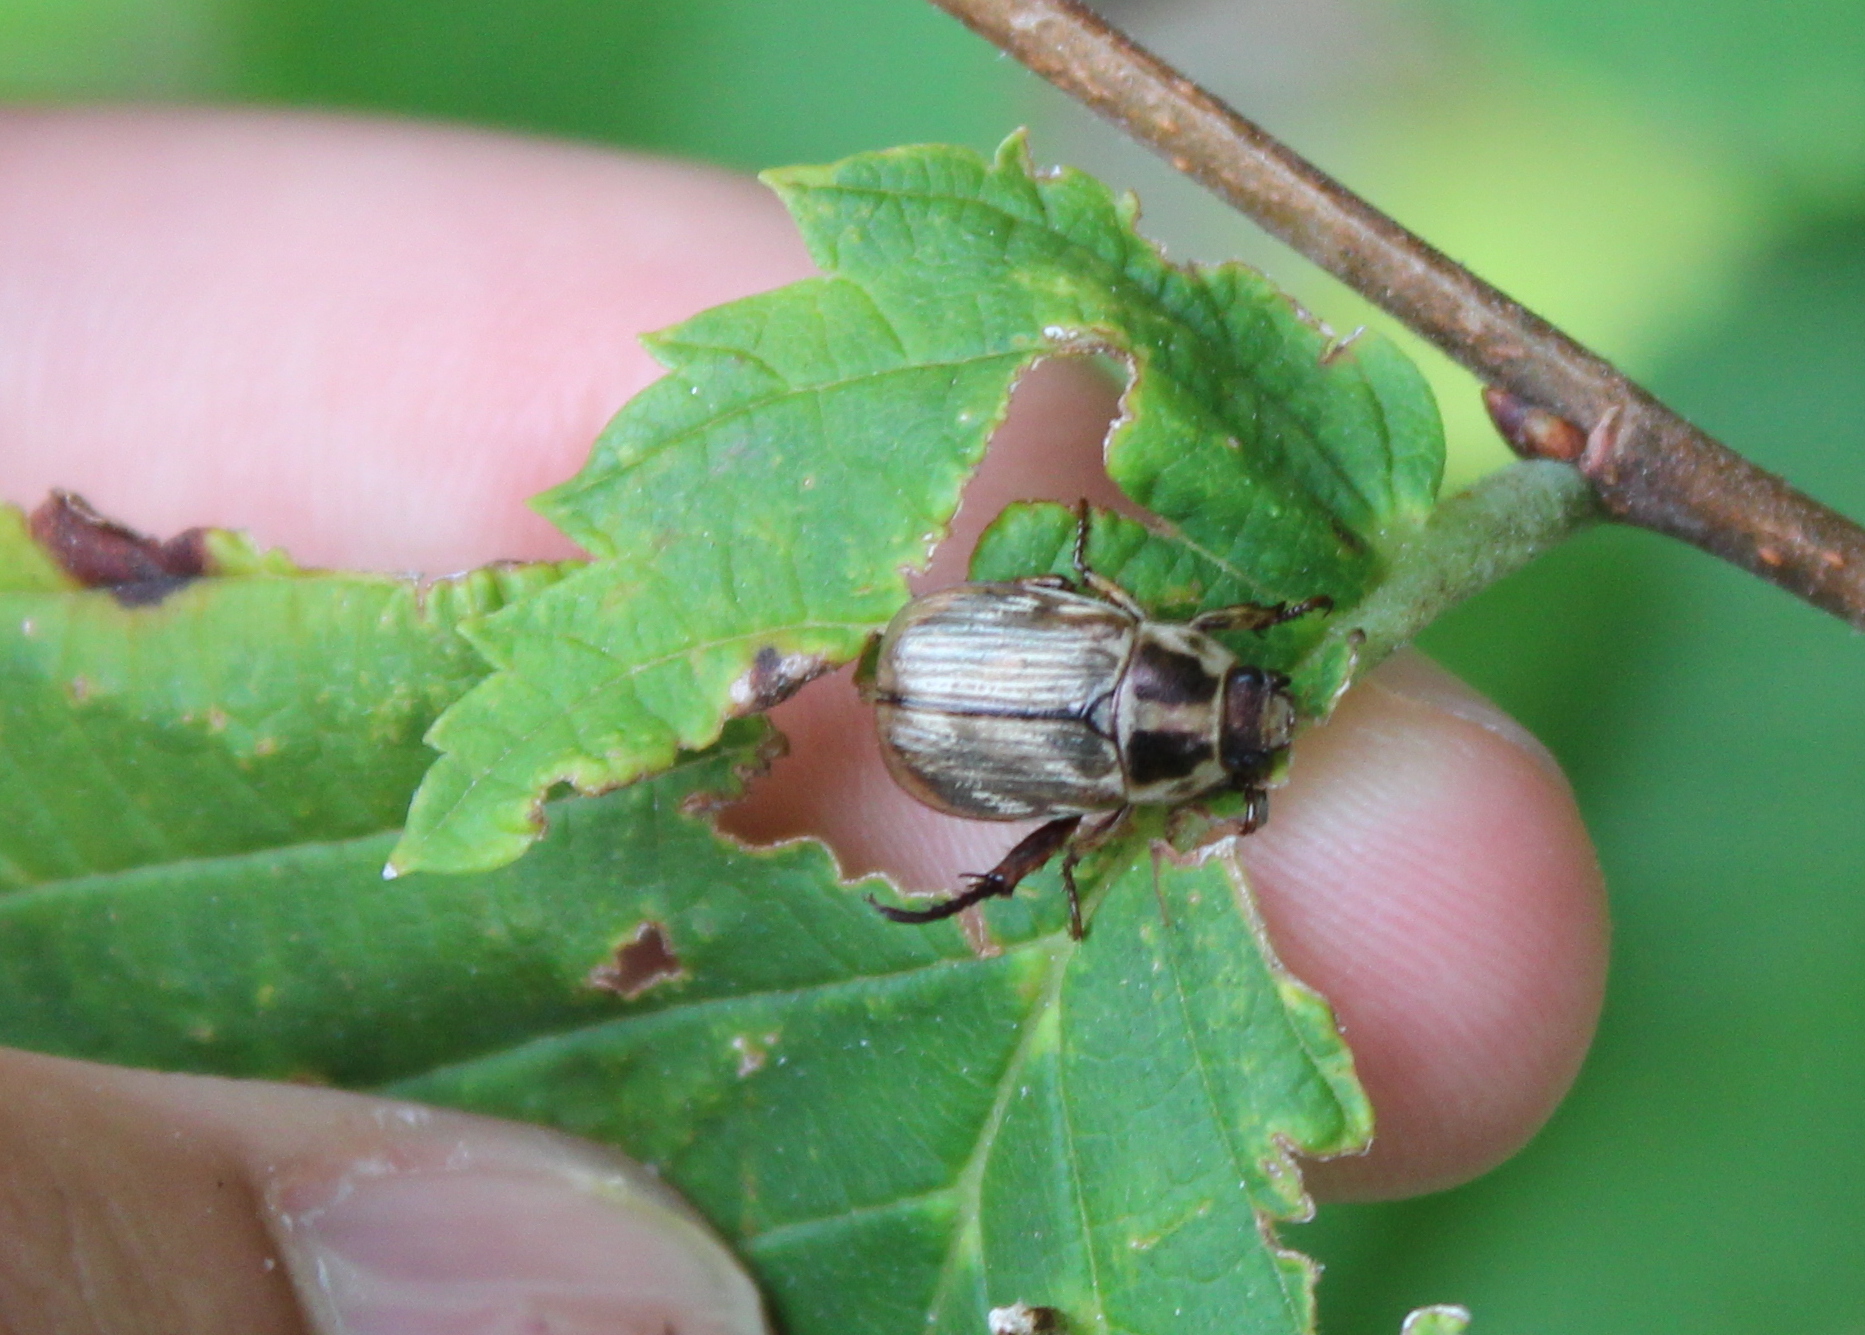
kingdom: Animalia
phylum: Arthropoda
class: Insecta
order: Coleoptera
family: Scarabaeidae
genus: Exomala
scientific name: Exomala orientalis
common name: Oriental beetle
